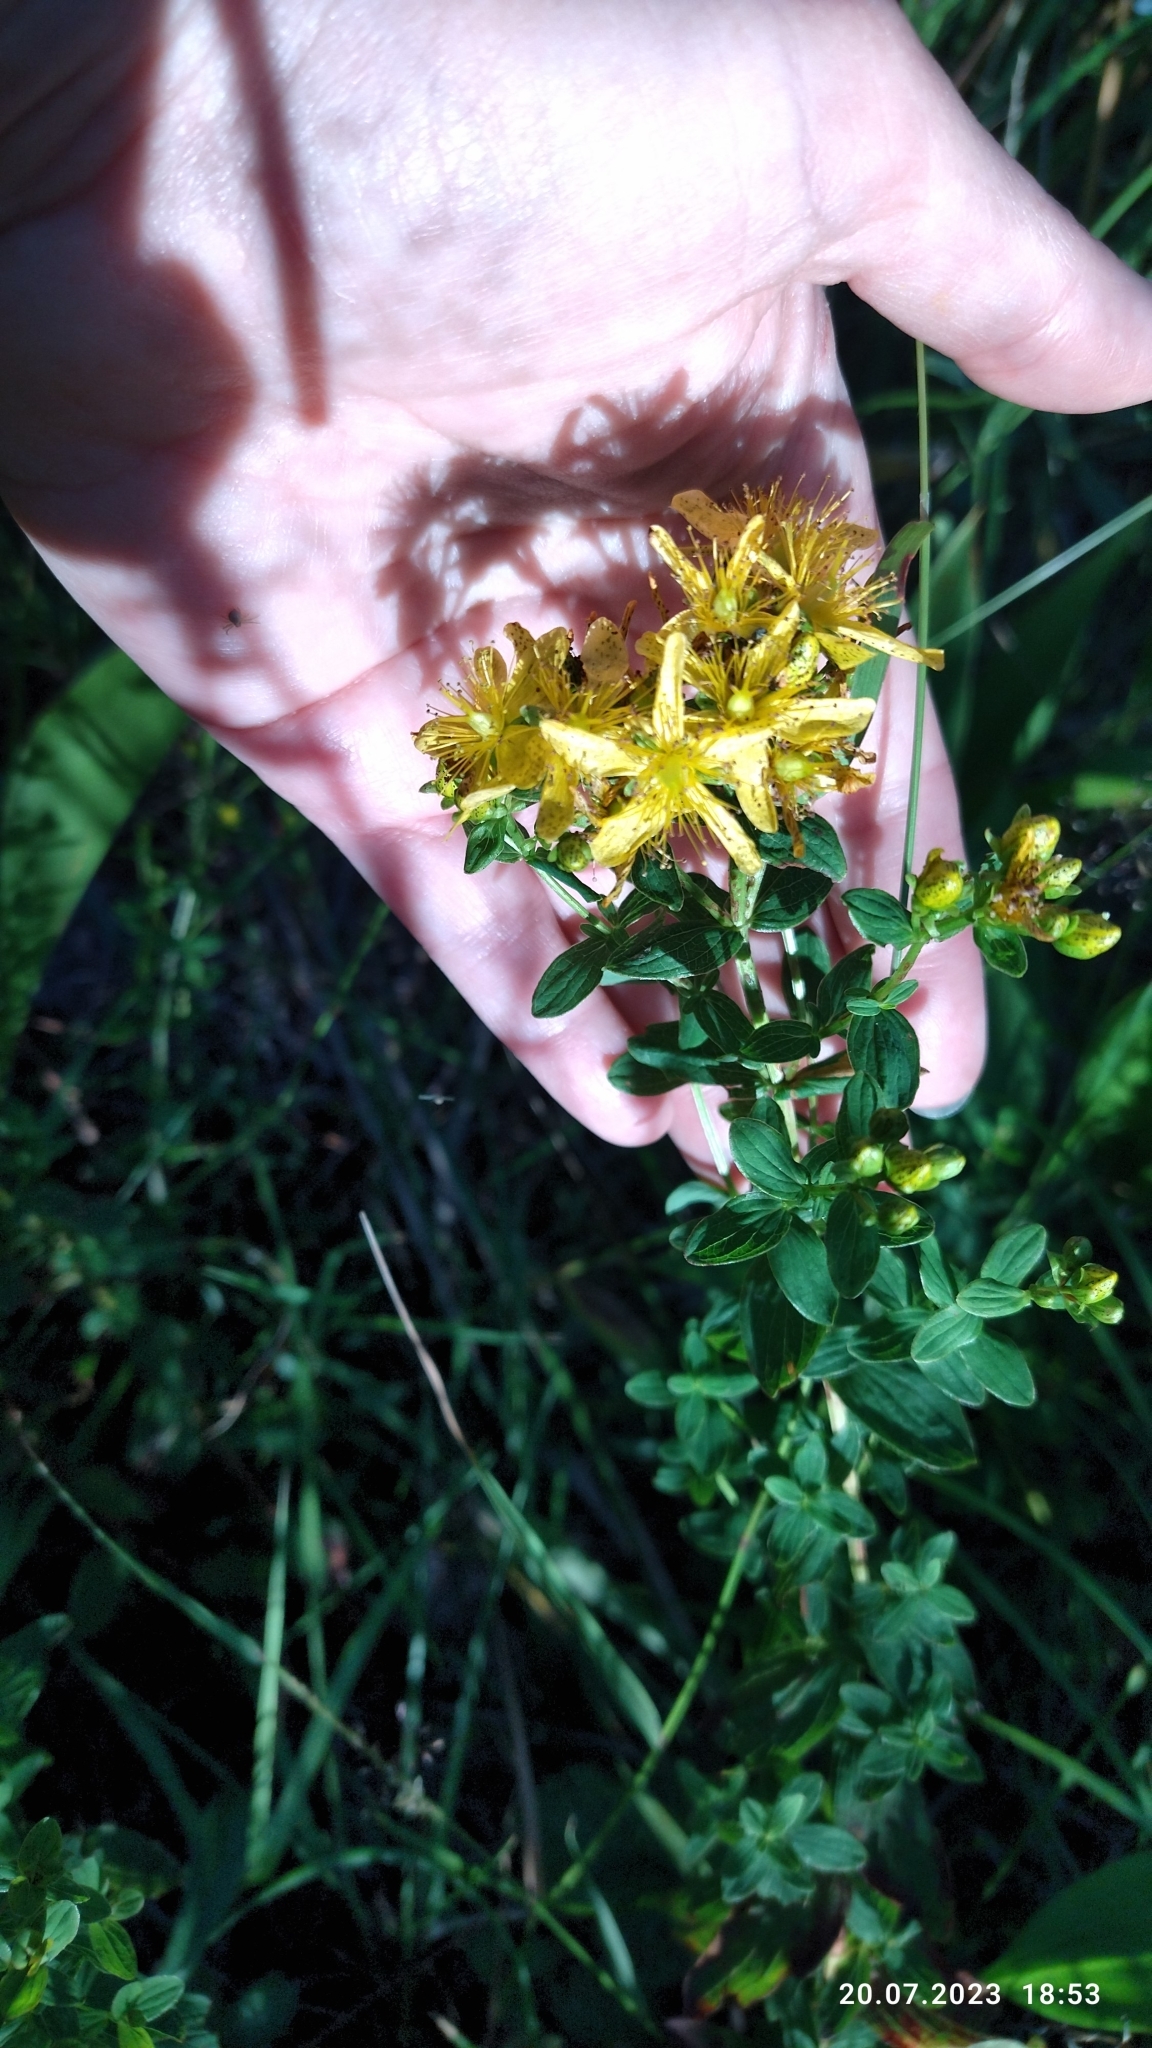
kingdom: Plantae
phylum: Tracheophyta
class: Magnoliopsida
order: Malpighiales
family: Hypericaceae
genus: Hypericum
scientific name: Hypericum maculatum
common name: Imperforate st. john's-wort
